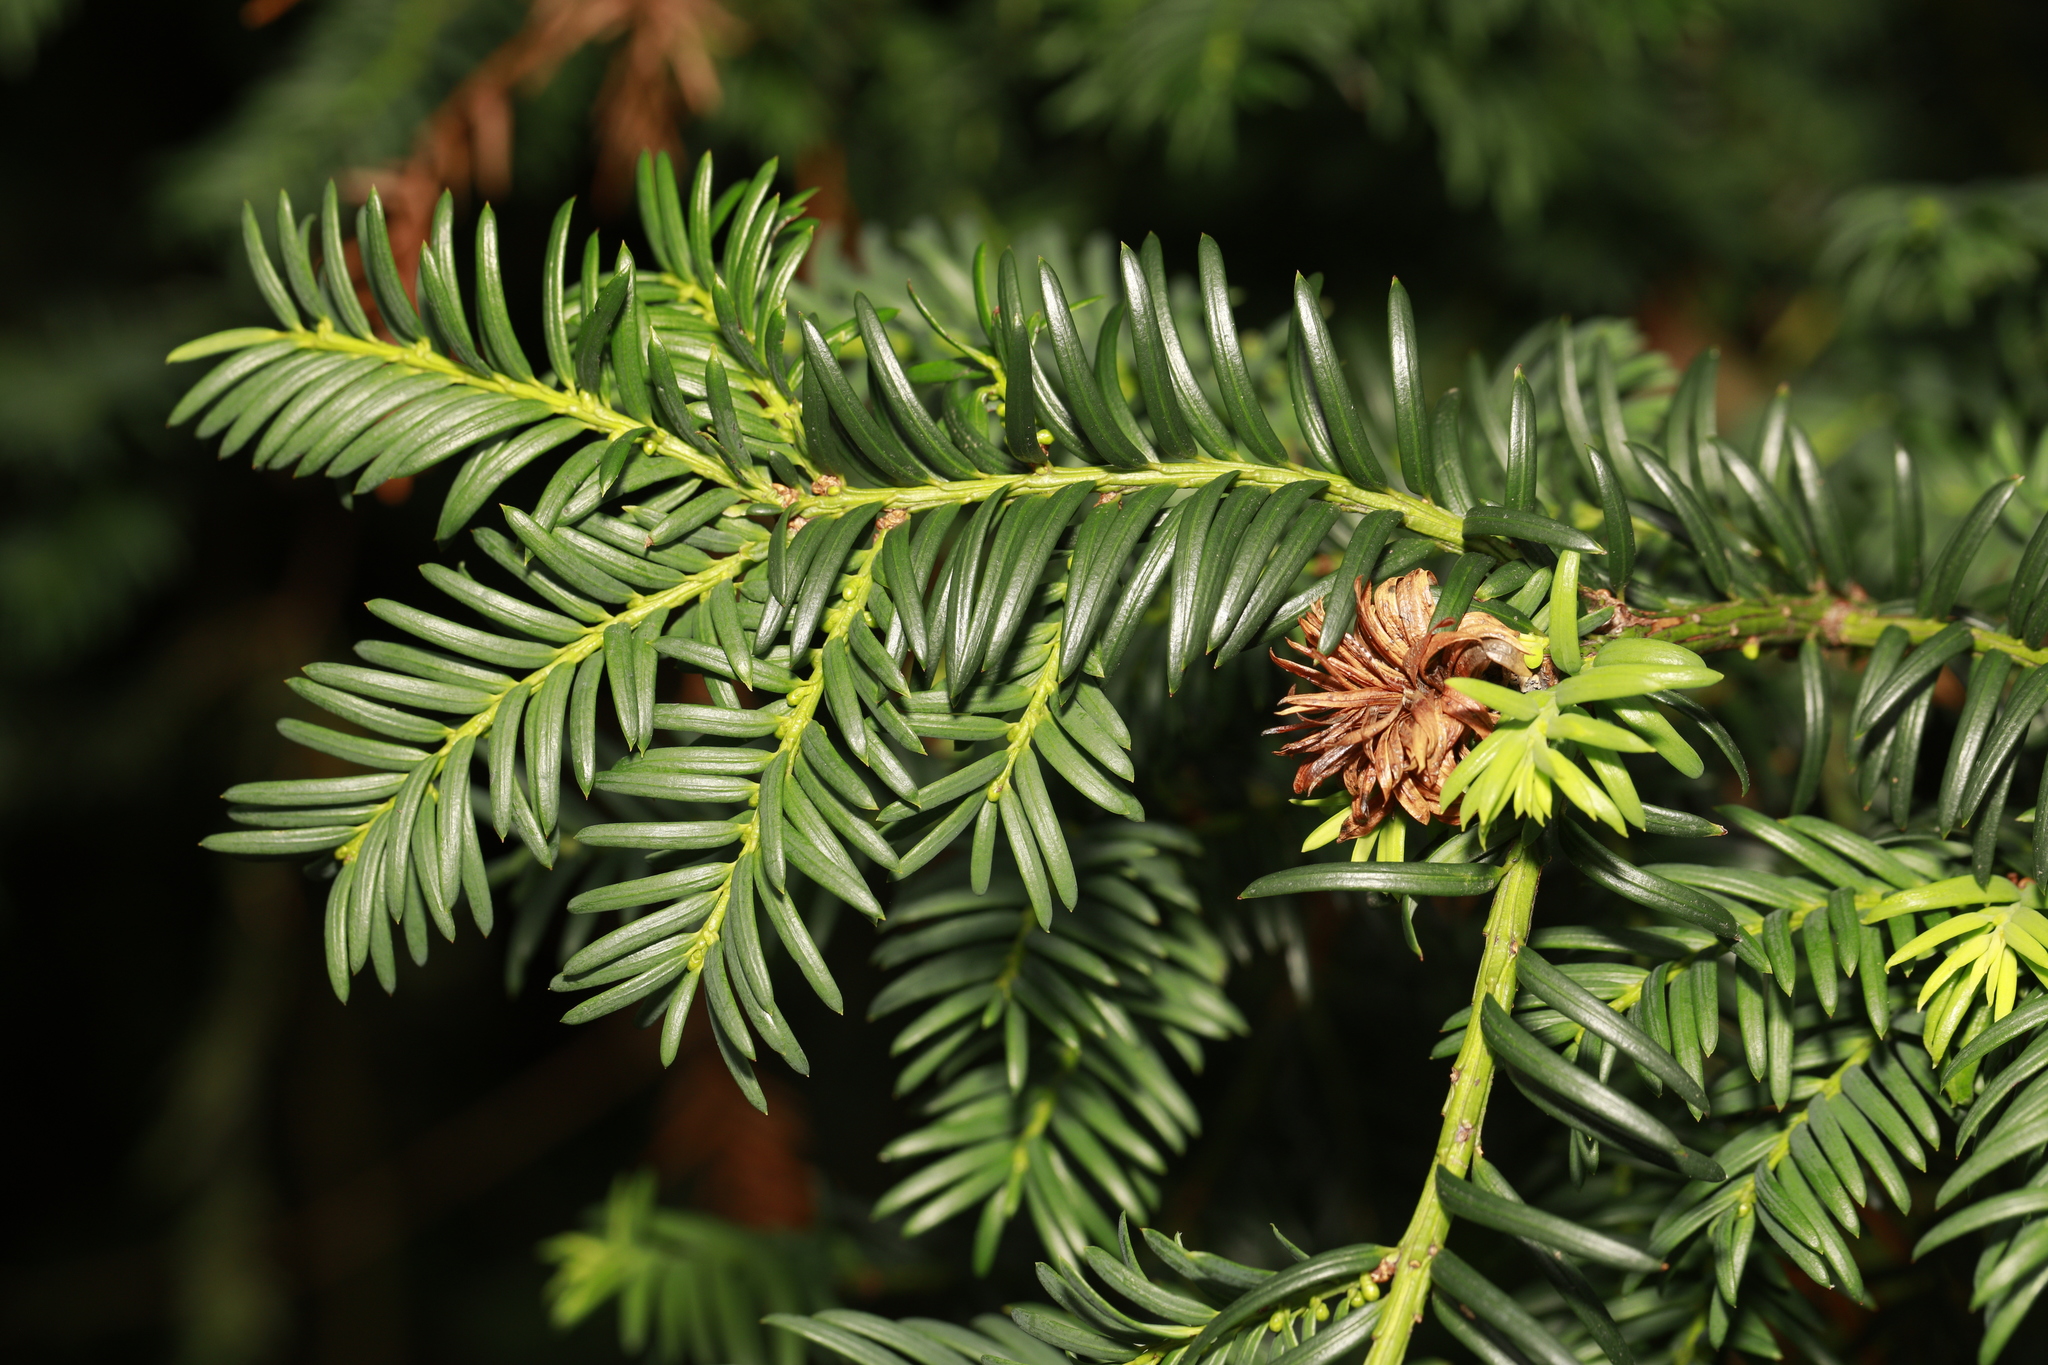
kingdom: Animalia
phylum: Arthropoda
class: Insecta
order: Diptera
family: Cecidomyiidae
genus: Taxomyia
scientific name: Taxomyia taxi
